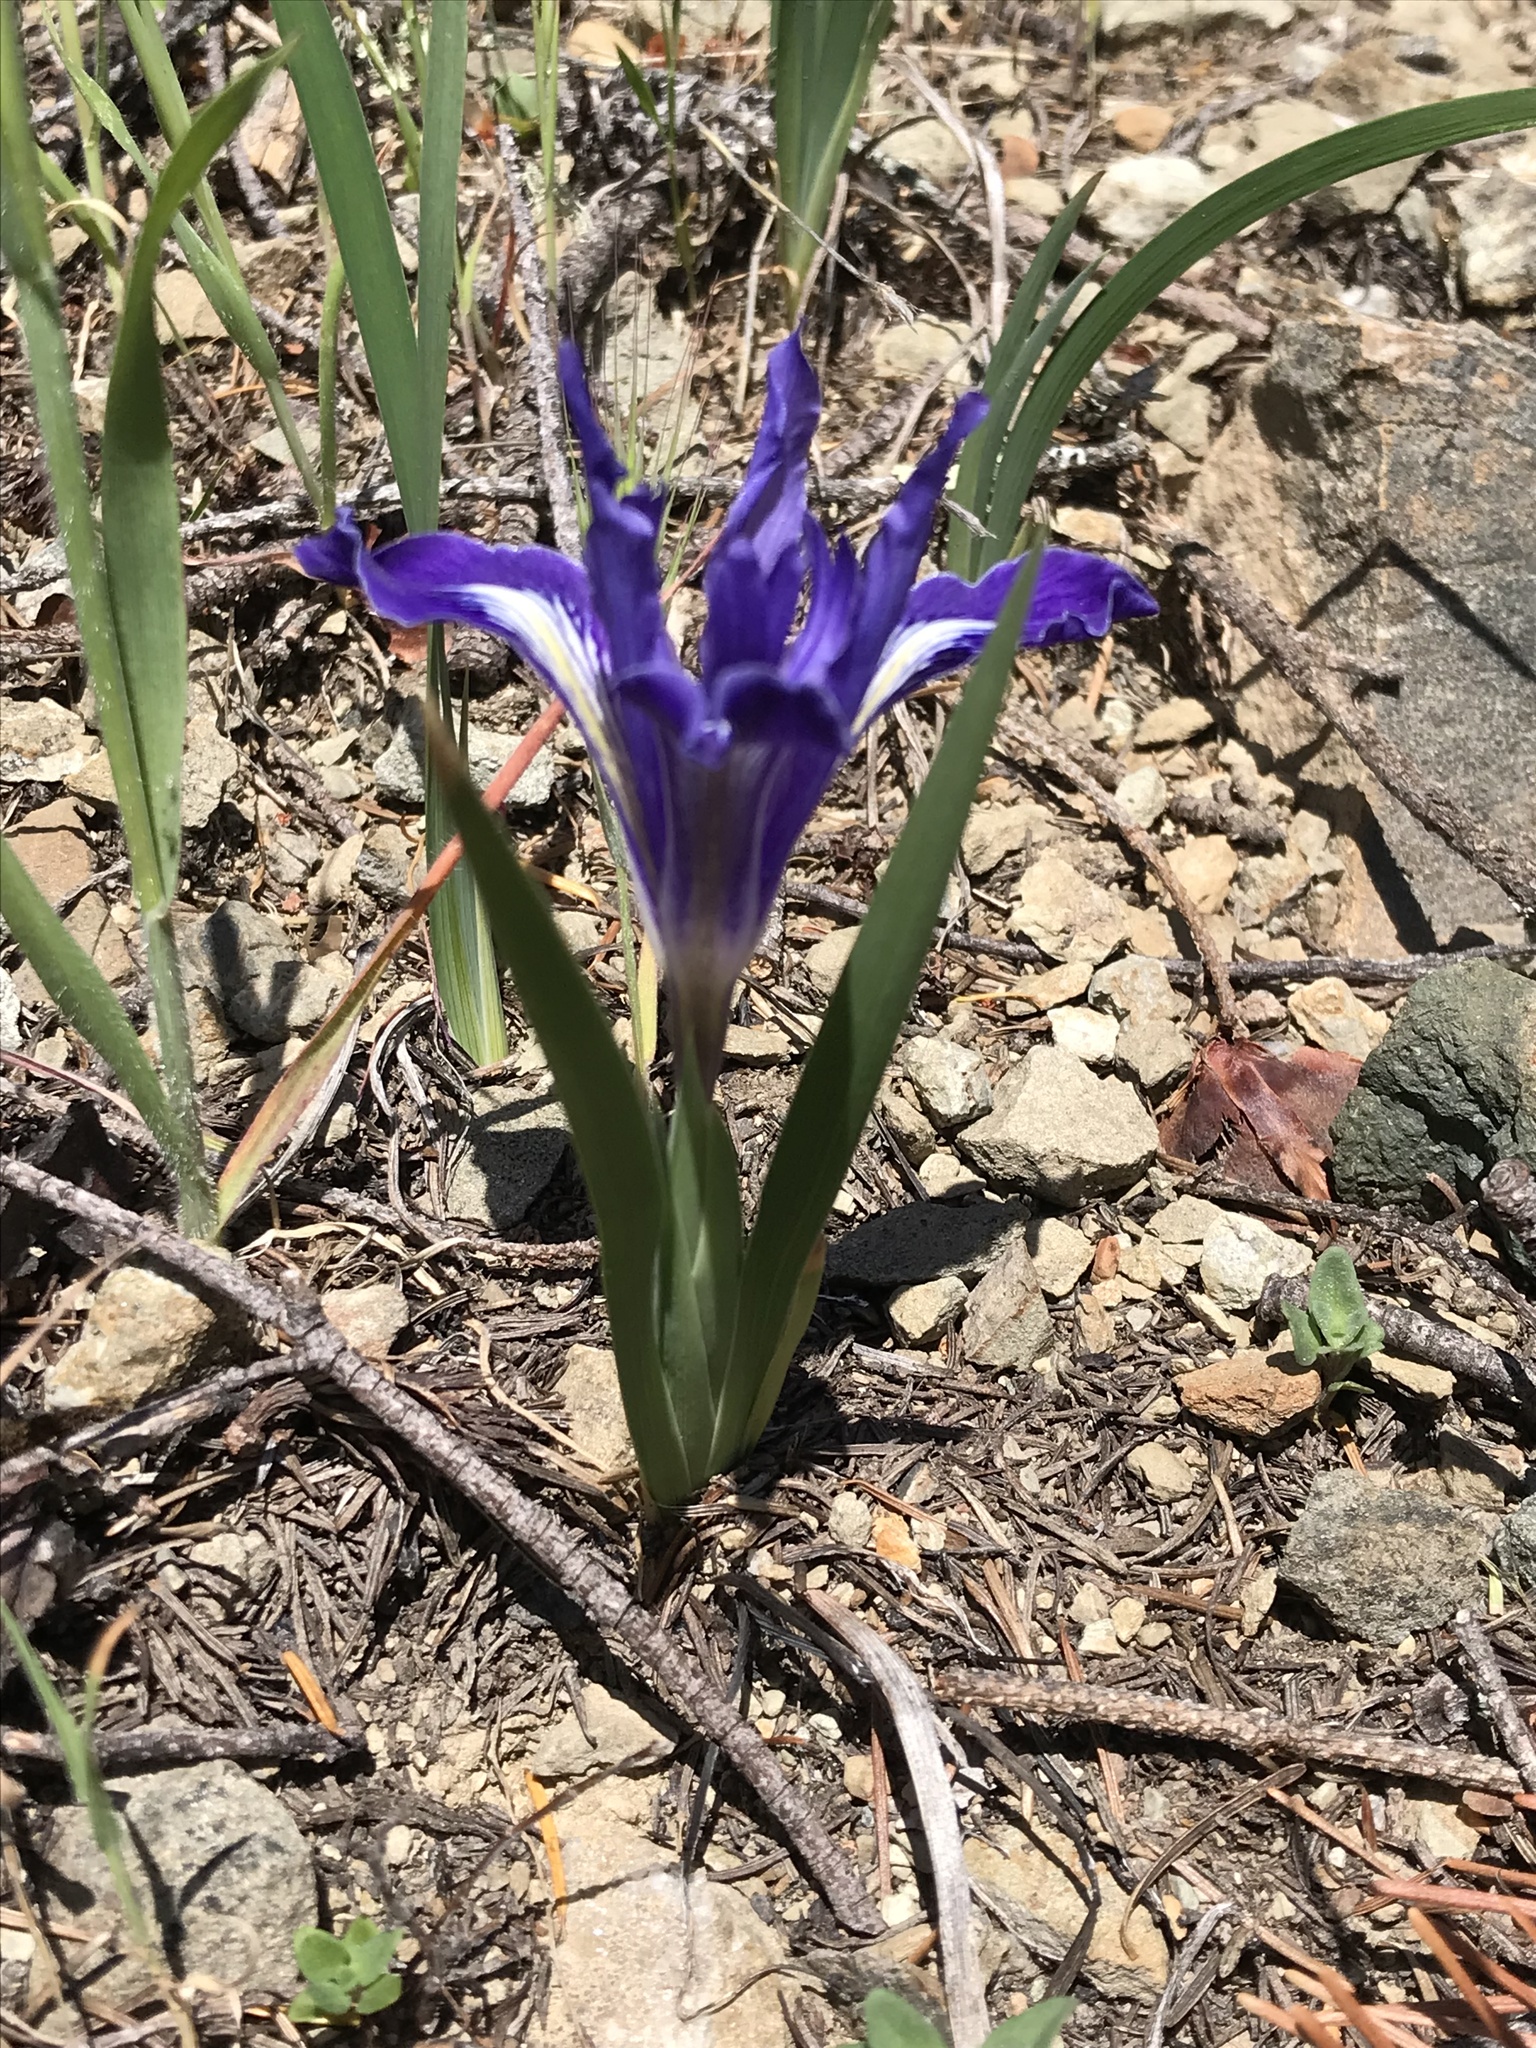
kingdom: Plantae
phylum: Tracheophyta
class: Liliopsida
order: Asparagales
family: Iridaceae
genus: Iris
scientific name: Iris macrosiphon
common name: Ground iris
